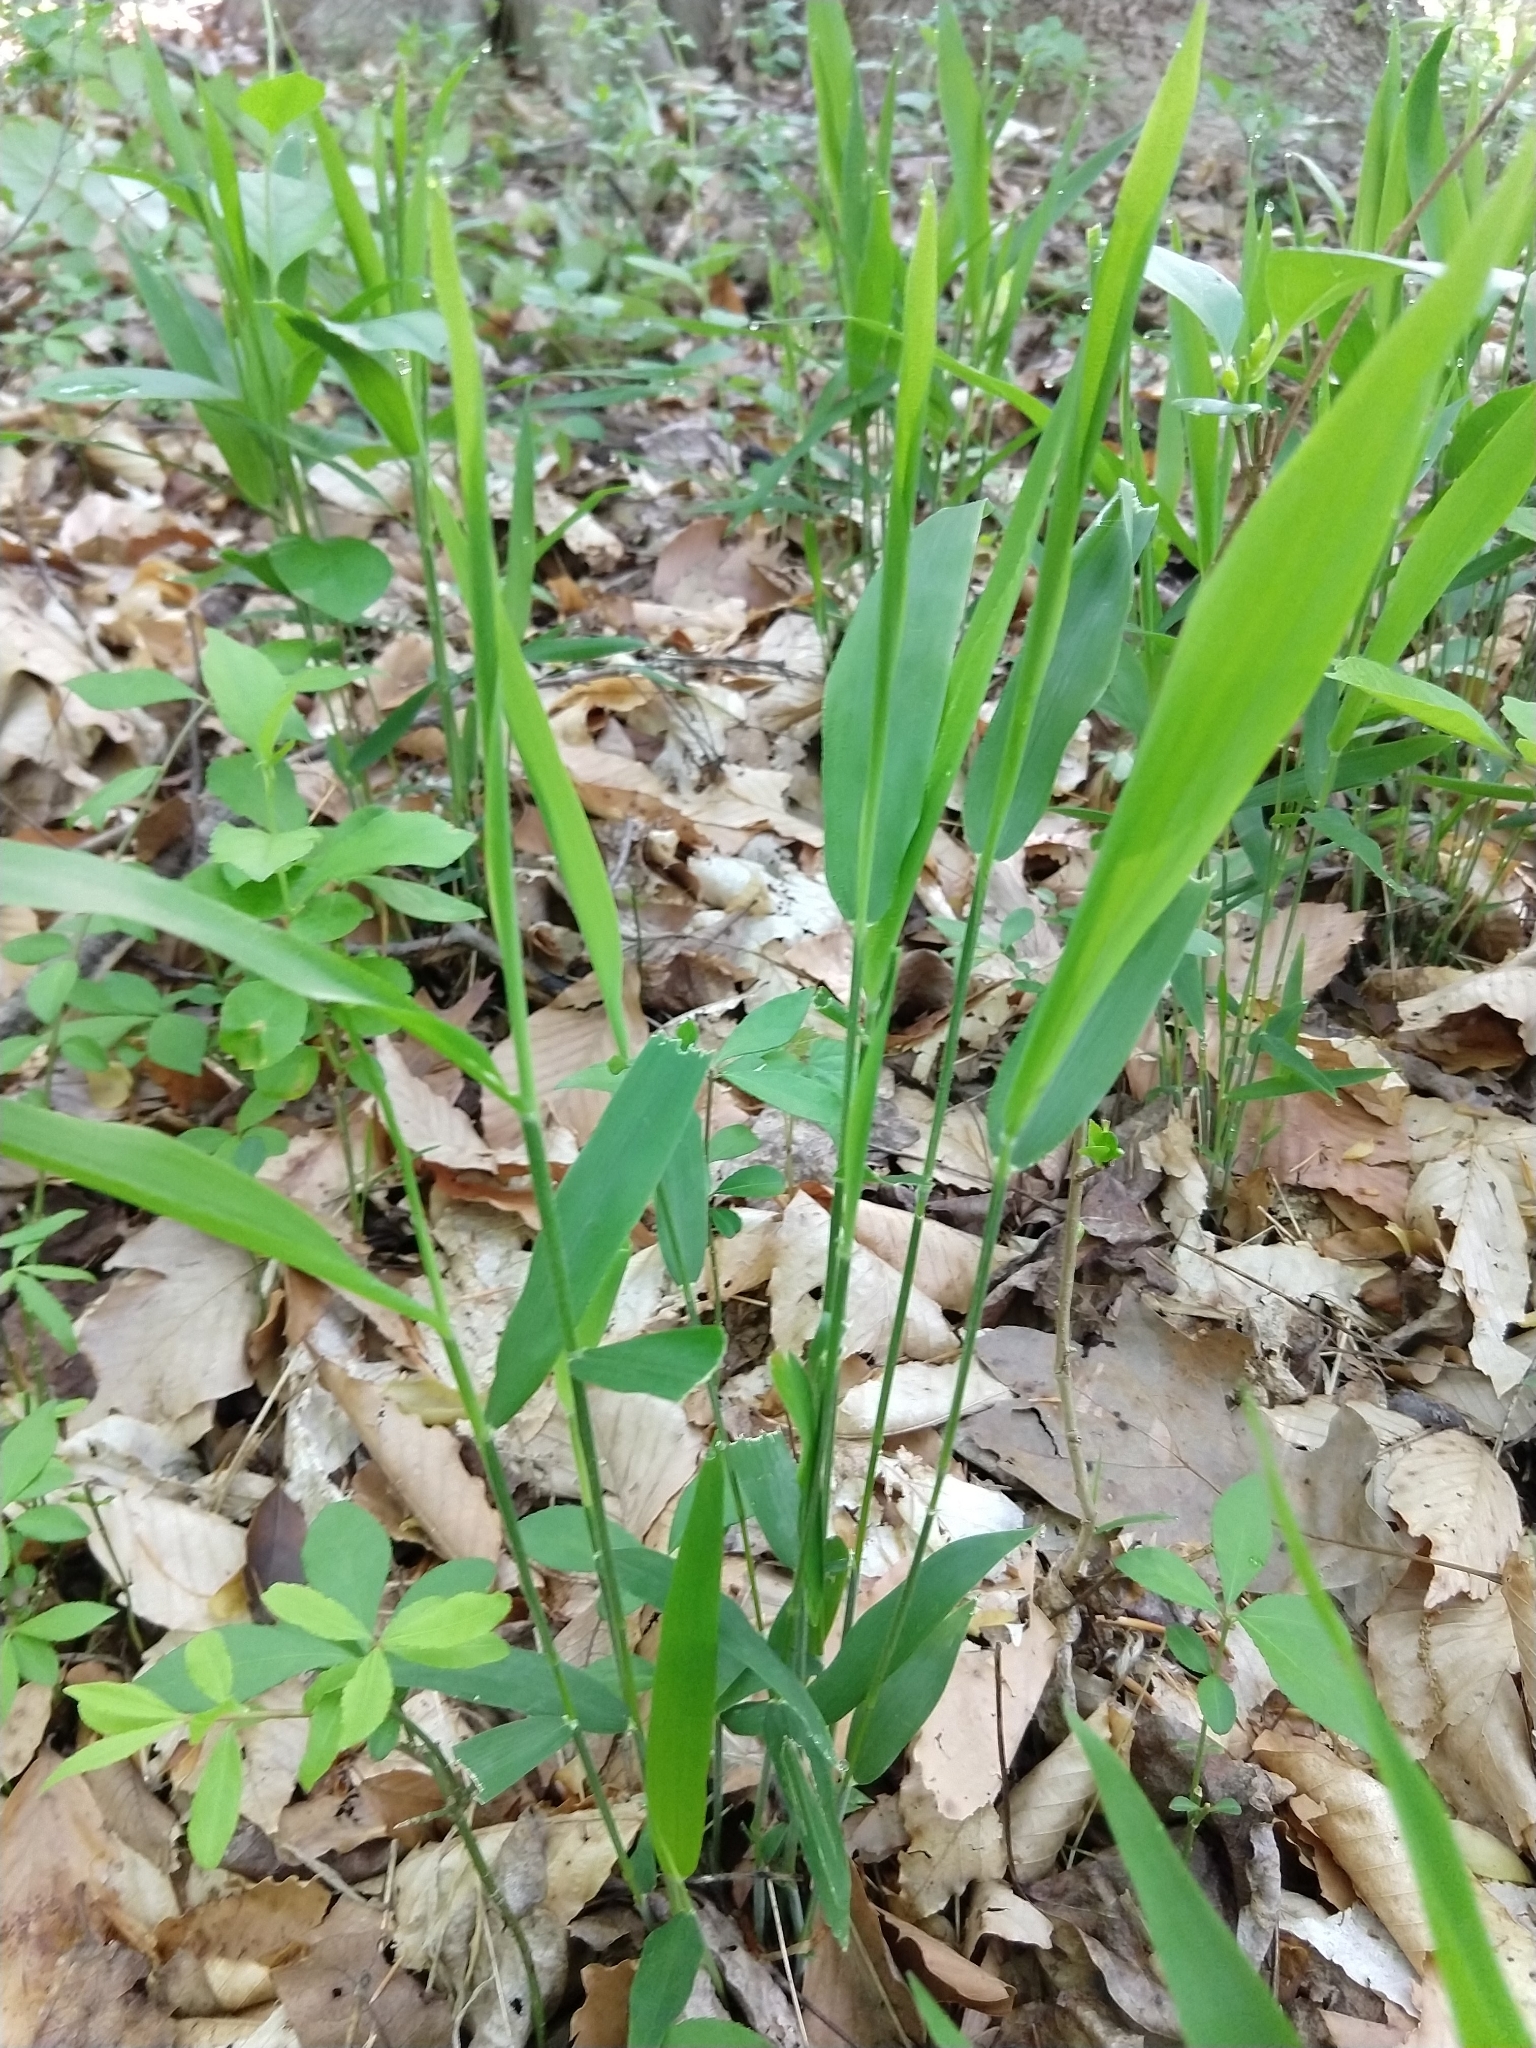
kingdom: Plantae
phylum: Tracheophyta
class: Liliopsida
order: Poales
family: Poaceae
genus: Chasmanthium
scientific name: Chasmanthium latifolium
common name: Broad-leaved chasmanthium
